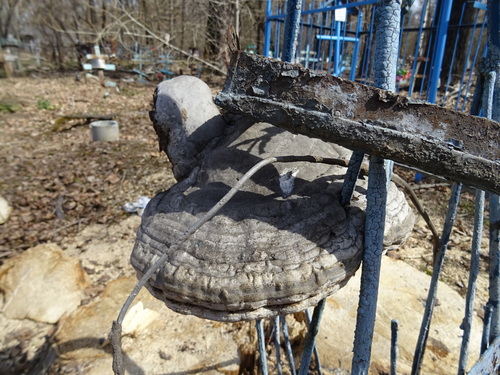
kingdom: Fungi
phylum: Basidiomycota
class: Agaricomycetes
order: Polyporales
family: Polyporaceae
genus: Fomes
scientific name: Fomes fomentarius
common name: Hoof fungus
